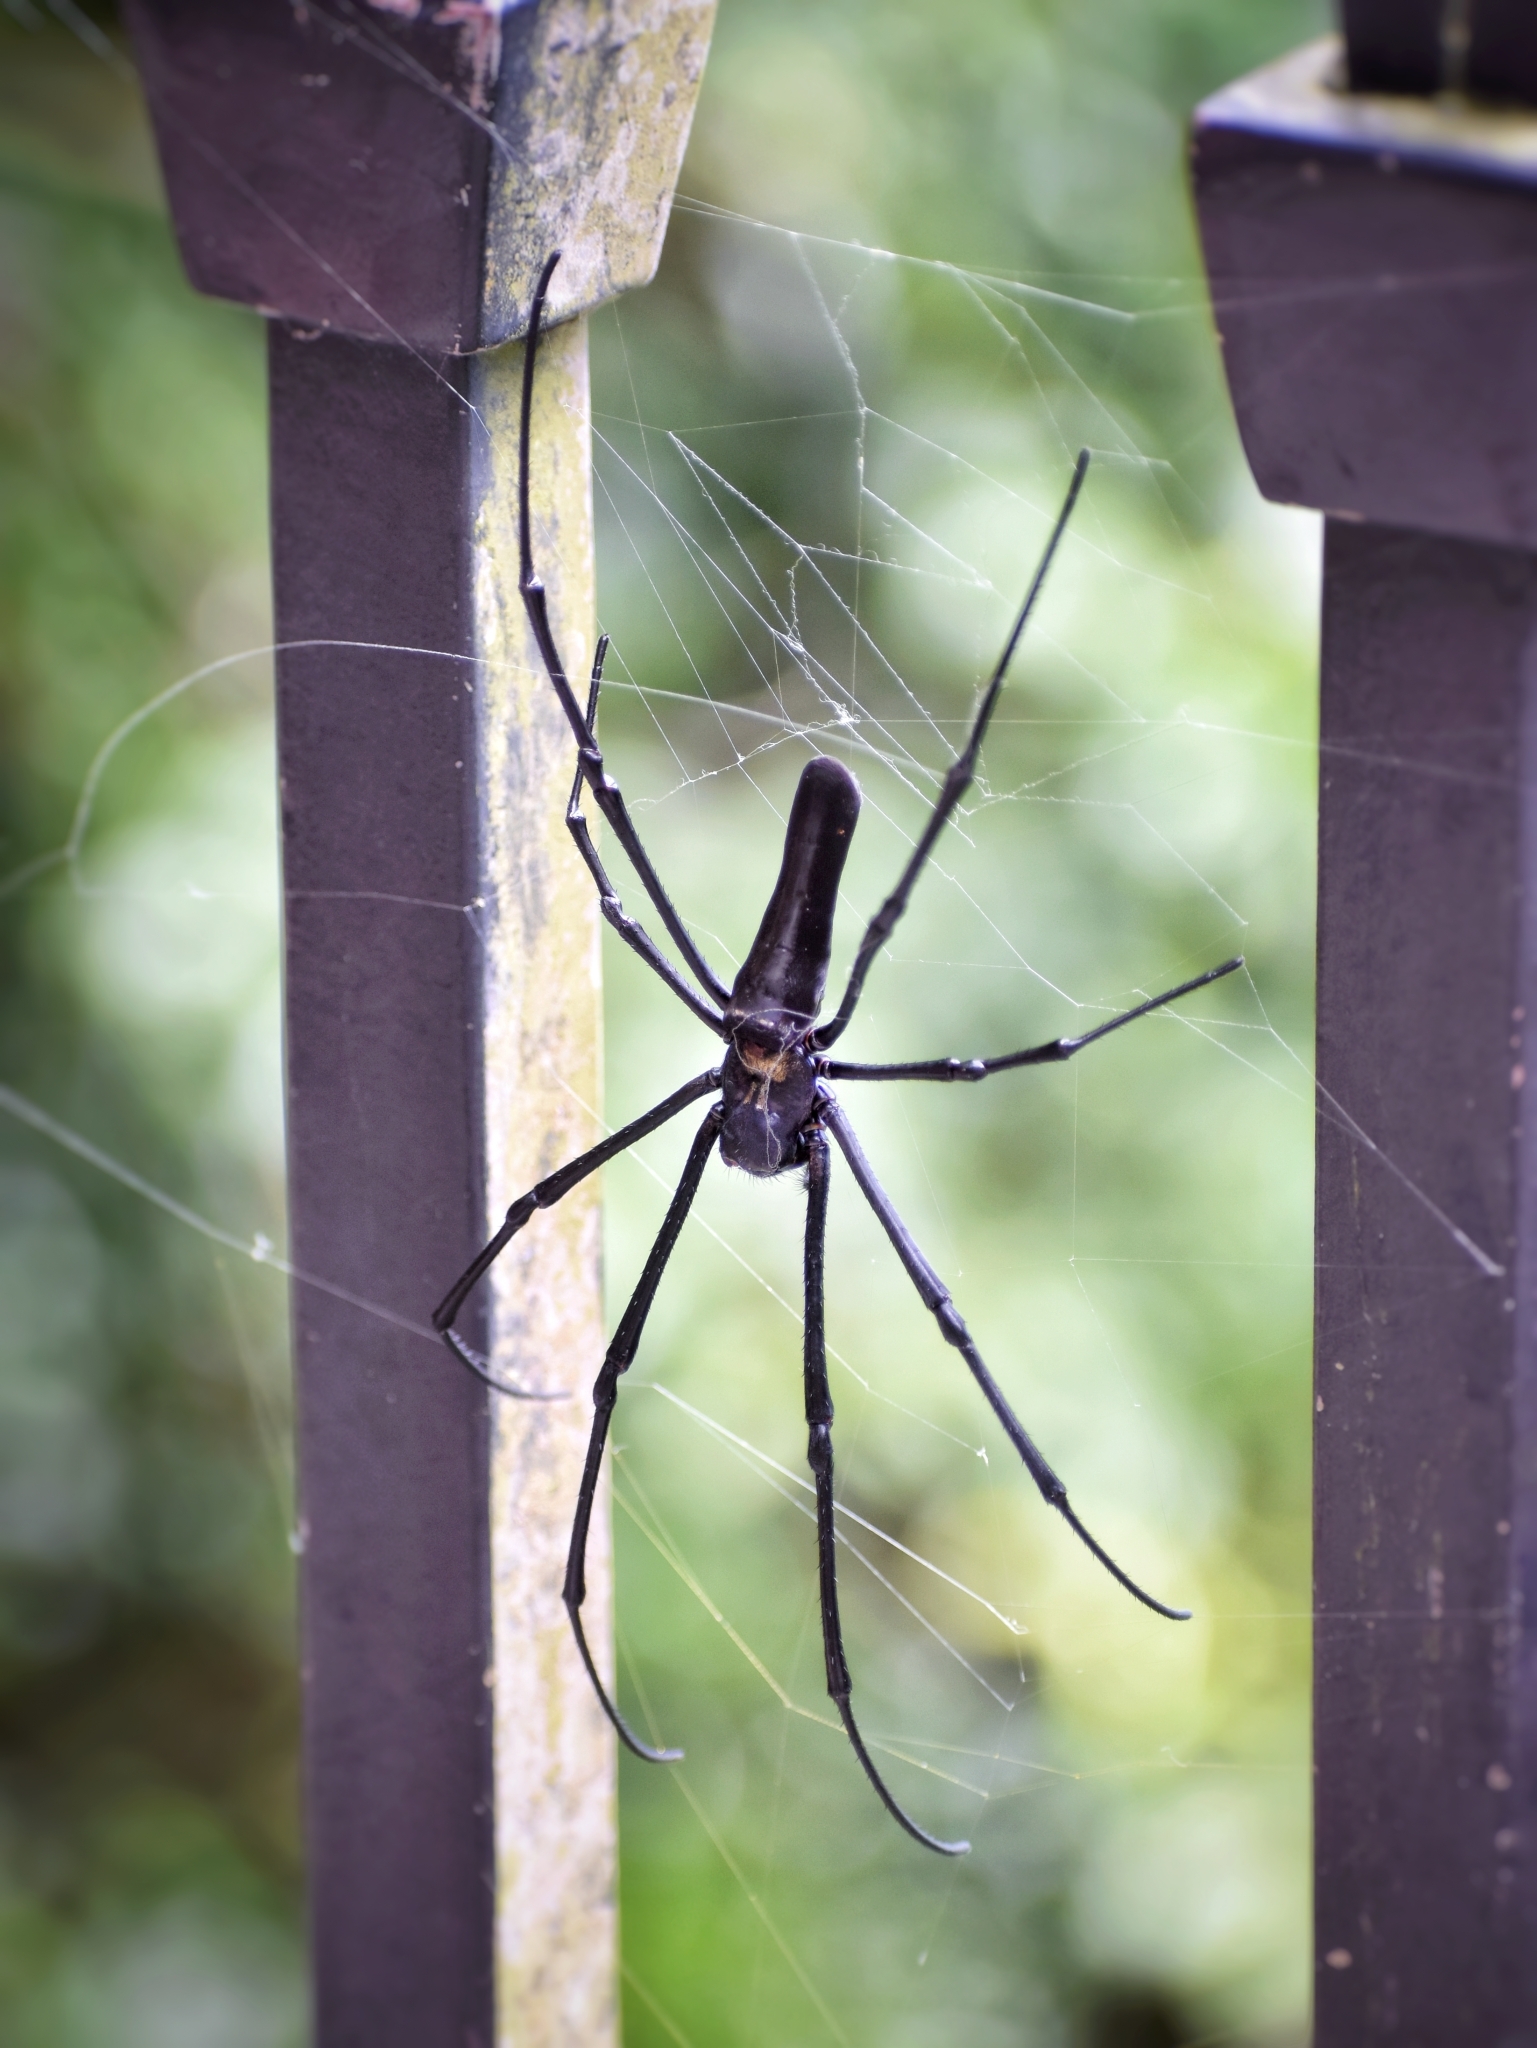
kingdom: Animalia
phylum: Arthropoda
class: Arachnida
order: Araneae
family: Araneidae
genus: Nephila
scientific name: Nephila pilipes
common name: Giant golden orb weaver
